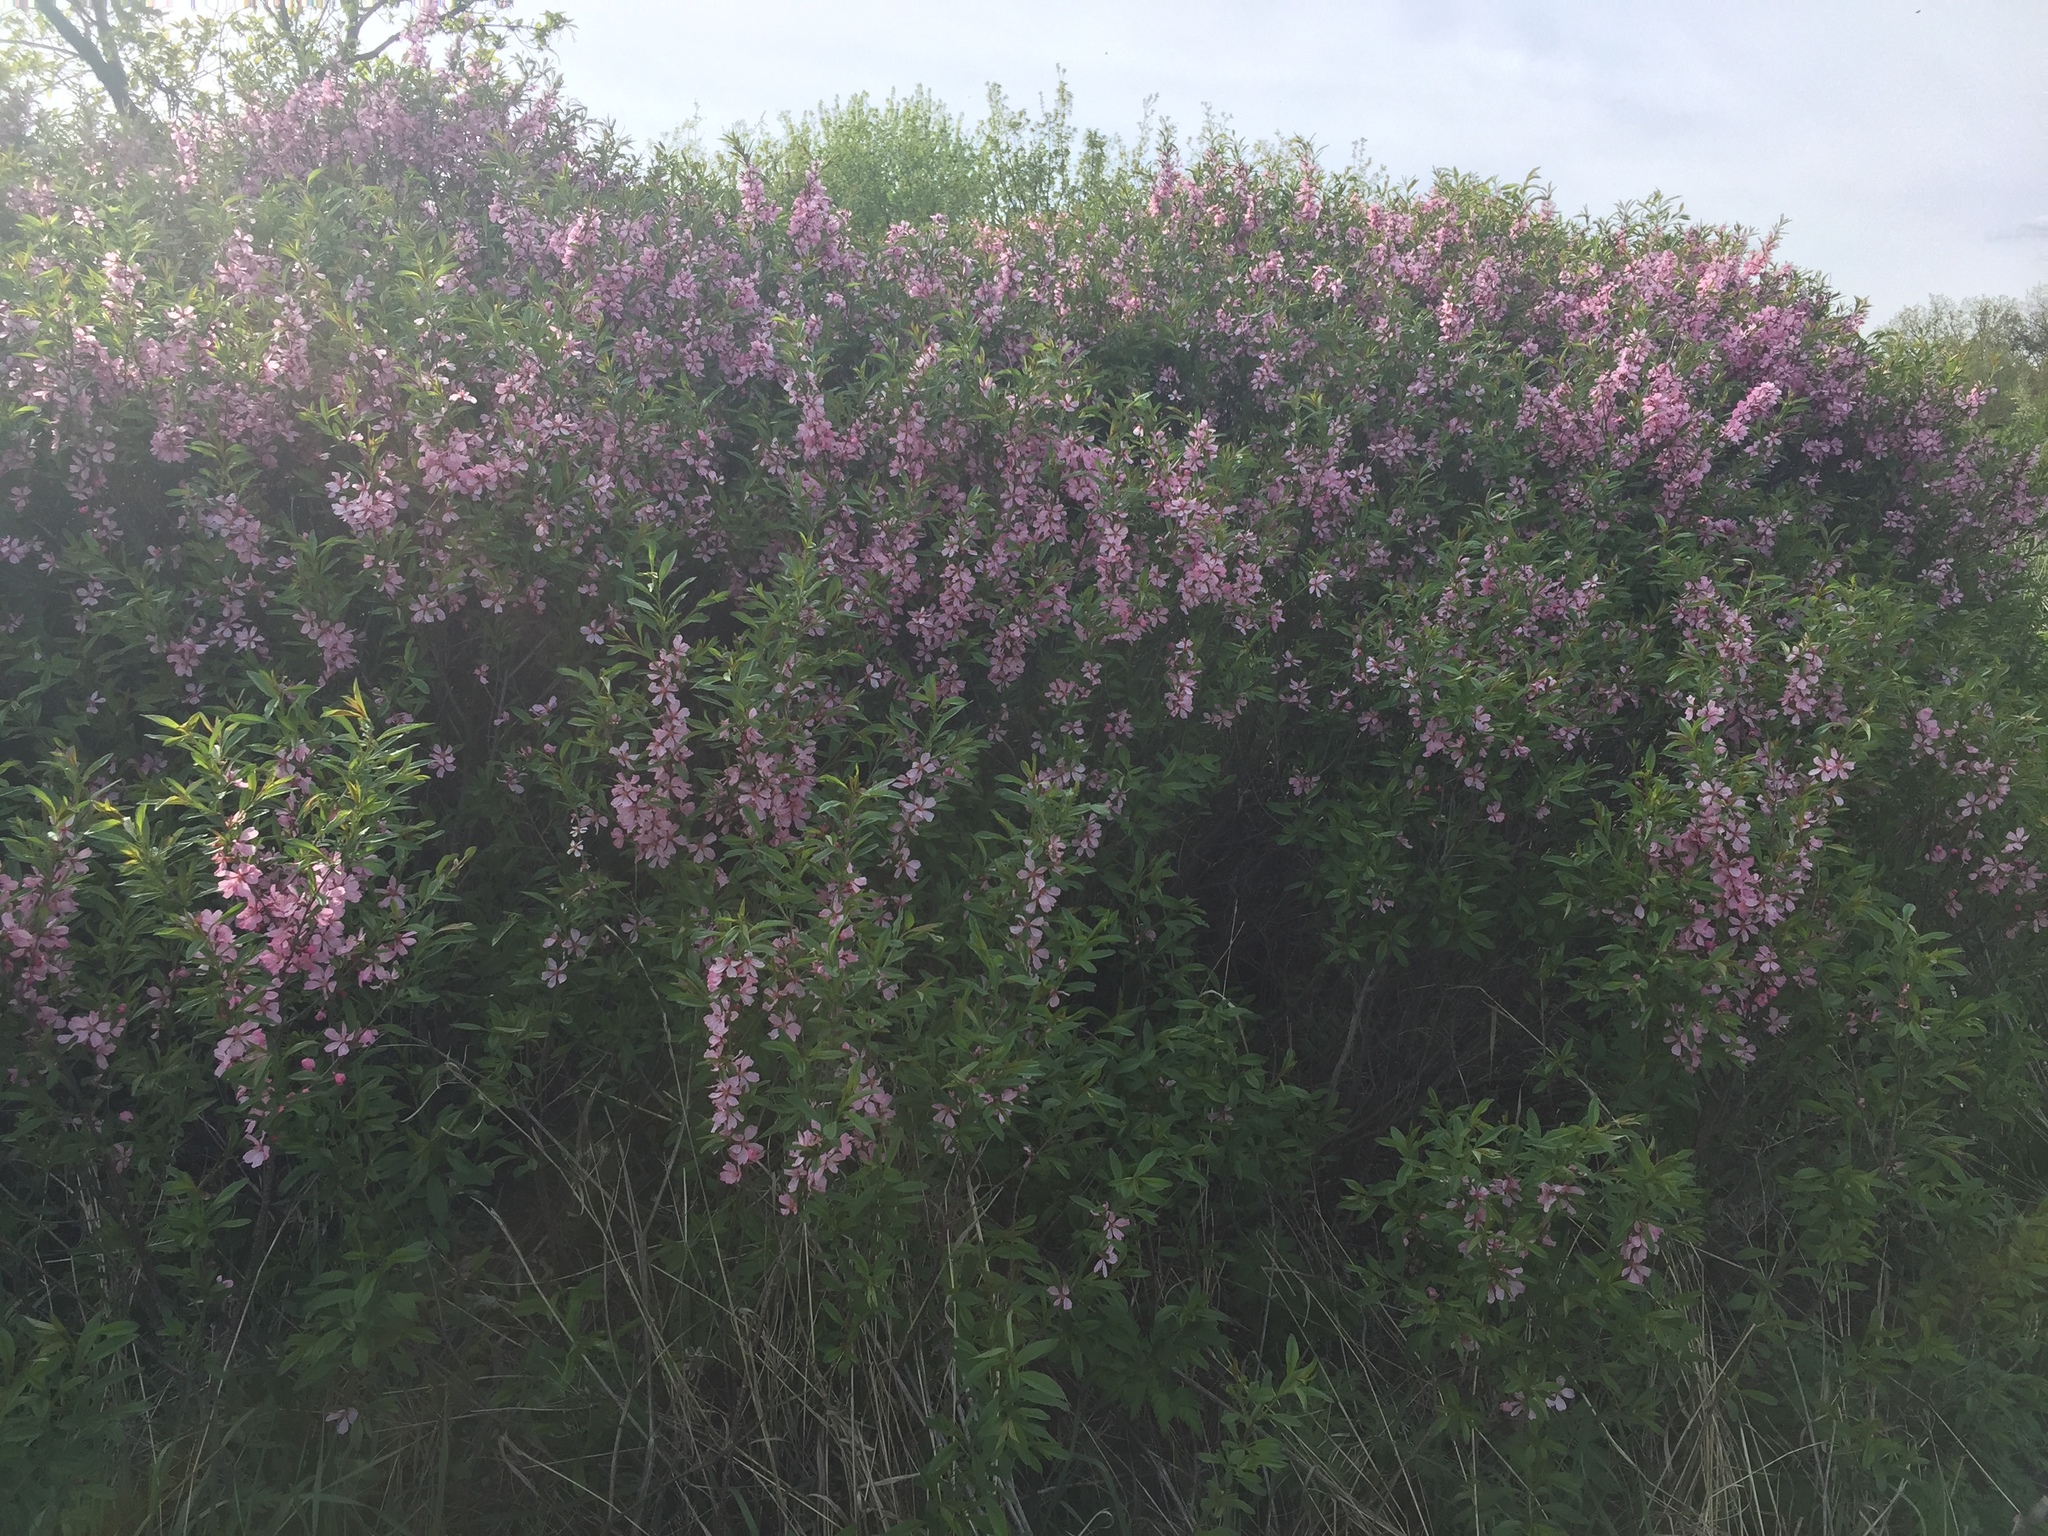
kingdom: Plantae
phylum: Tracheophyta
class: Magnoliopsida
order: Rosales
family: Rosaceae
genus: Prunus
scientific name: Prunus tenella
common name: Dwarf russian almond
